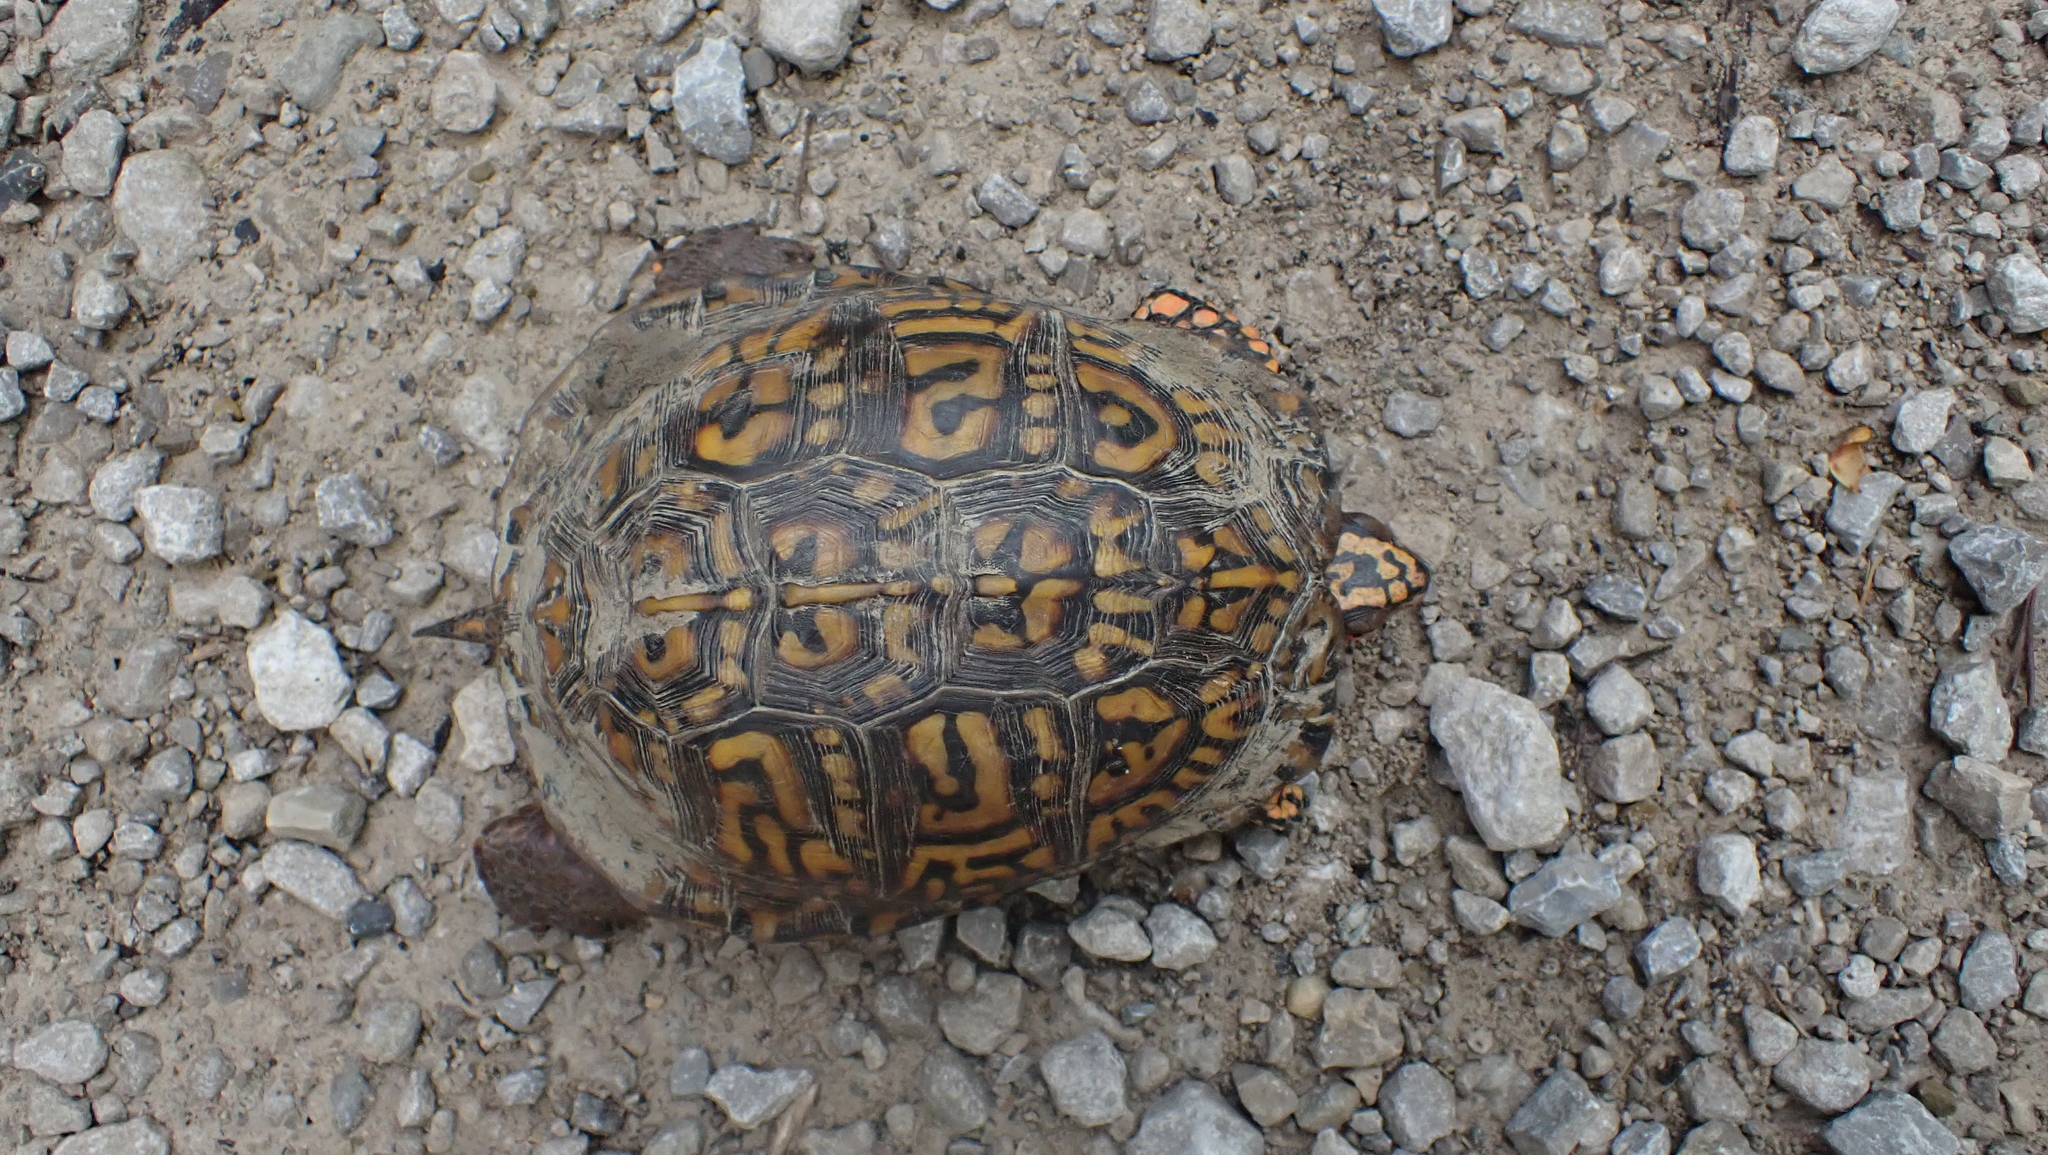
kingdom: Animalia
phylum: Chordata
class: Testudines
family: Emydidae
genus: Terrapene
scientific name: Terrapene carolina
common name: Common box turtle
